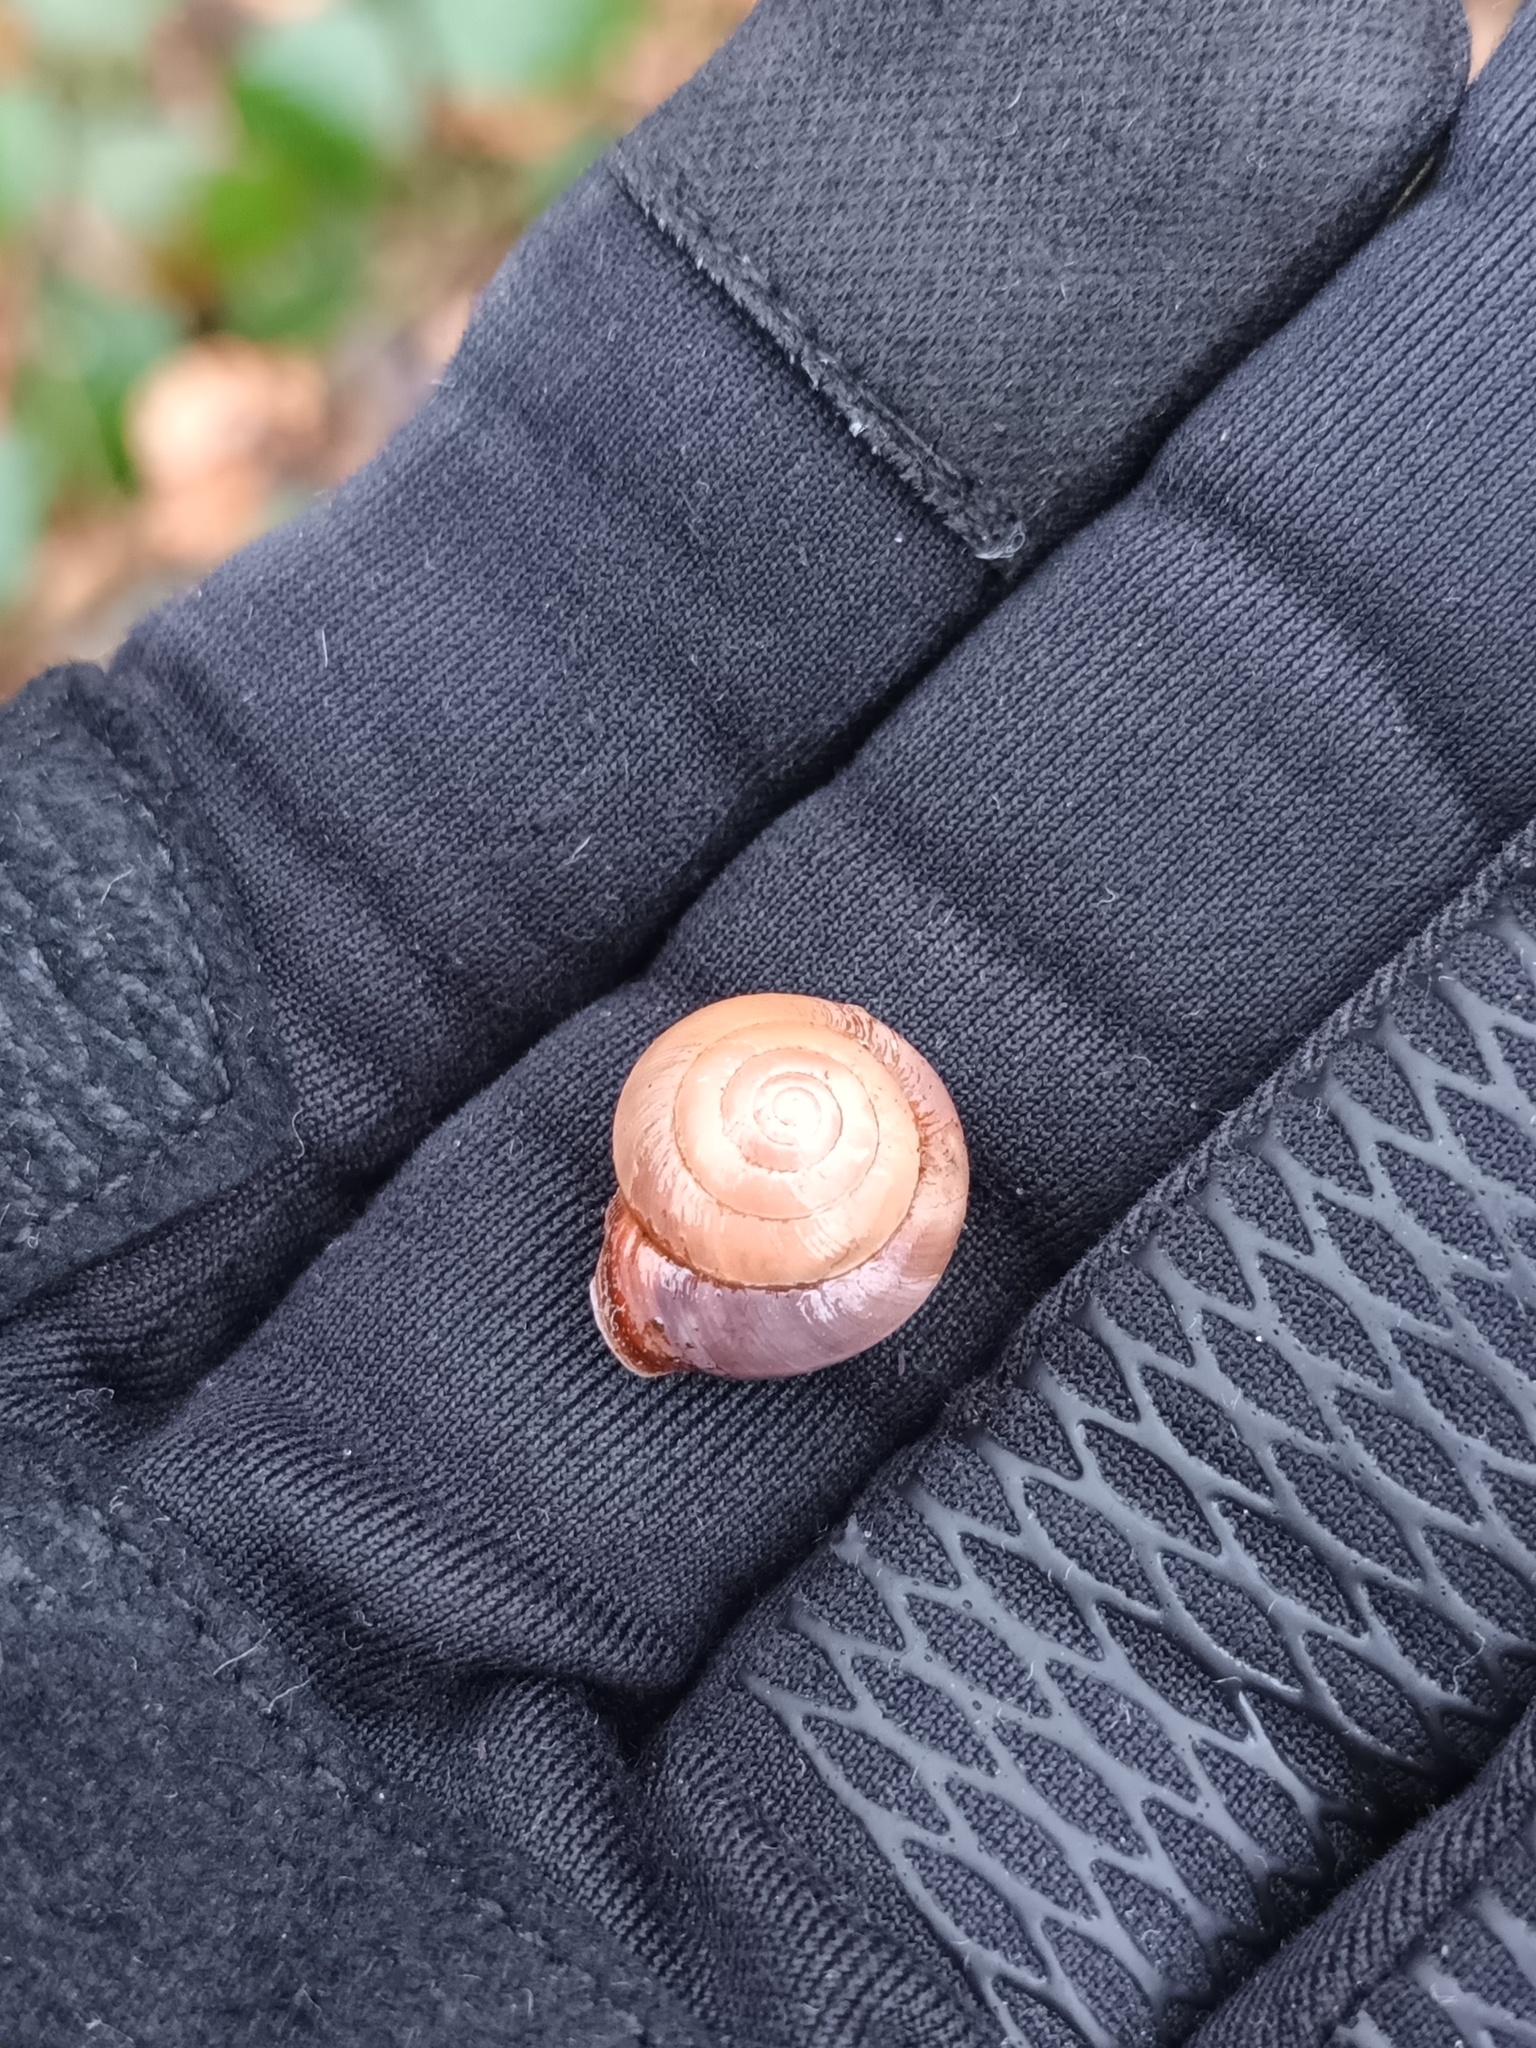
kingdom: Animalia
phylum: Mollusca
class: Gastropoda
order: Stylommatophora
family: Hygromiidae
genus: Hygromia
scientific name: Hygromia cinctella
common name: Girdled snail
